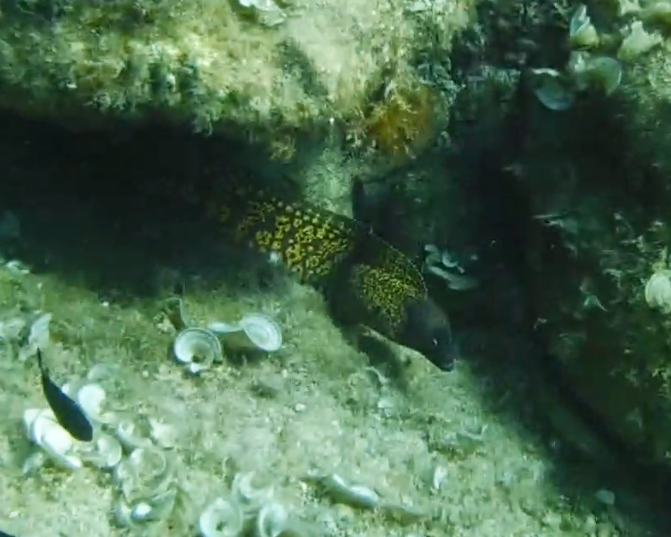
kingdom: Animalia
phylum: Chordata
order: Anguilliformes
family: Muraenidae
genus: Muraena
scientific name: Muraena helena
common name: Mediterranean moray
